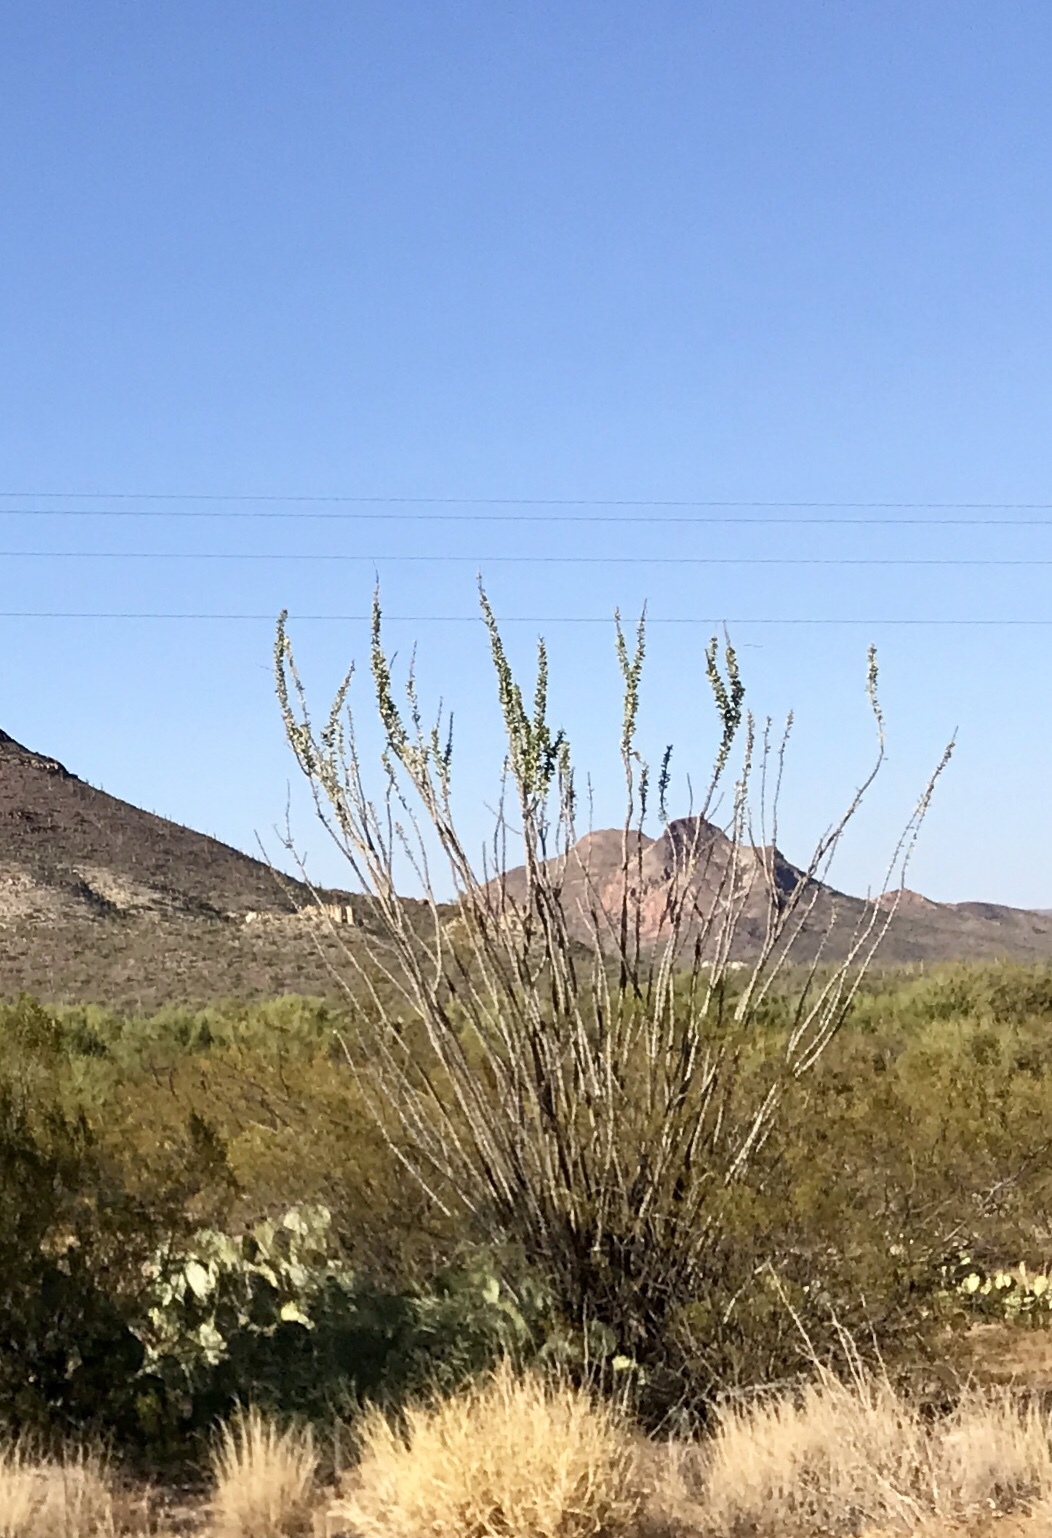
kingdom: Plantae
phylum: Tracheophyta
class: Magnoliopsida
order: Ericales
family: Fouquieriaceae
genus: Fouquieria
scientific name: Fouquieria splendens
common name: Vine-cactus
